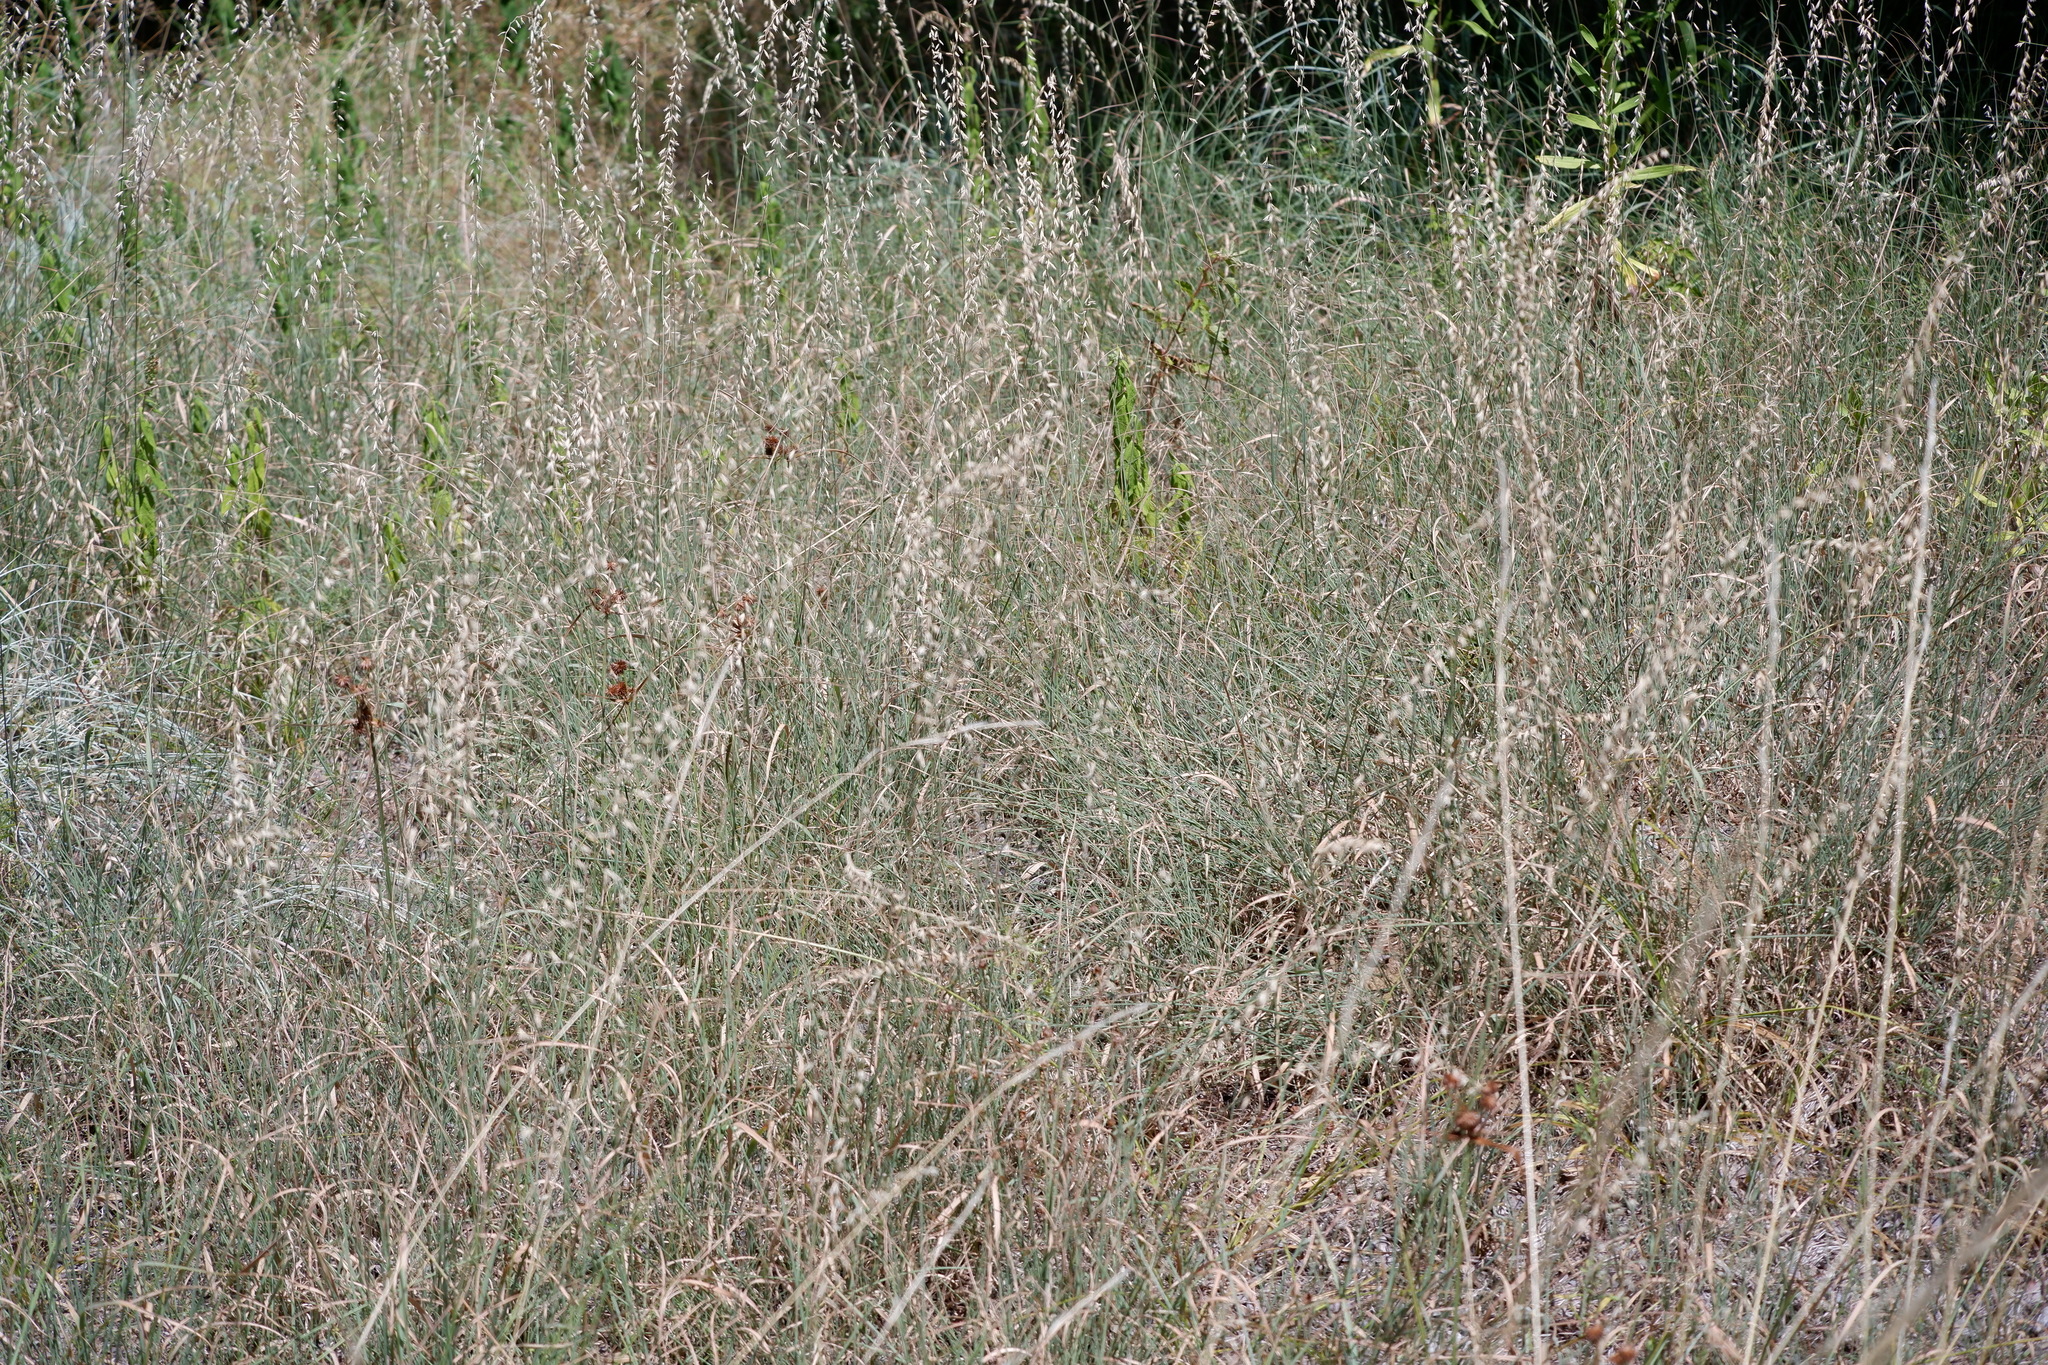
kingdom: Plantae
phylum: Tracheophyta
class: Liliopsida
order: Poales
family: Poaceae
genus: Bouteloua
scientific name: Bouteloua curtipendula
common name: Side-oats grama
